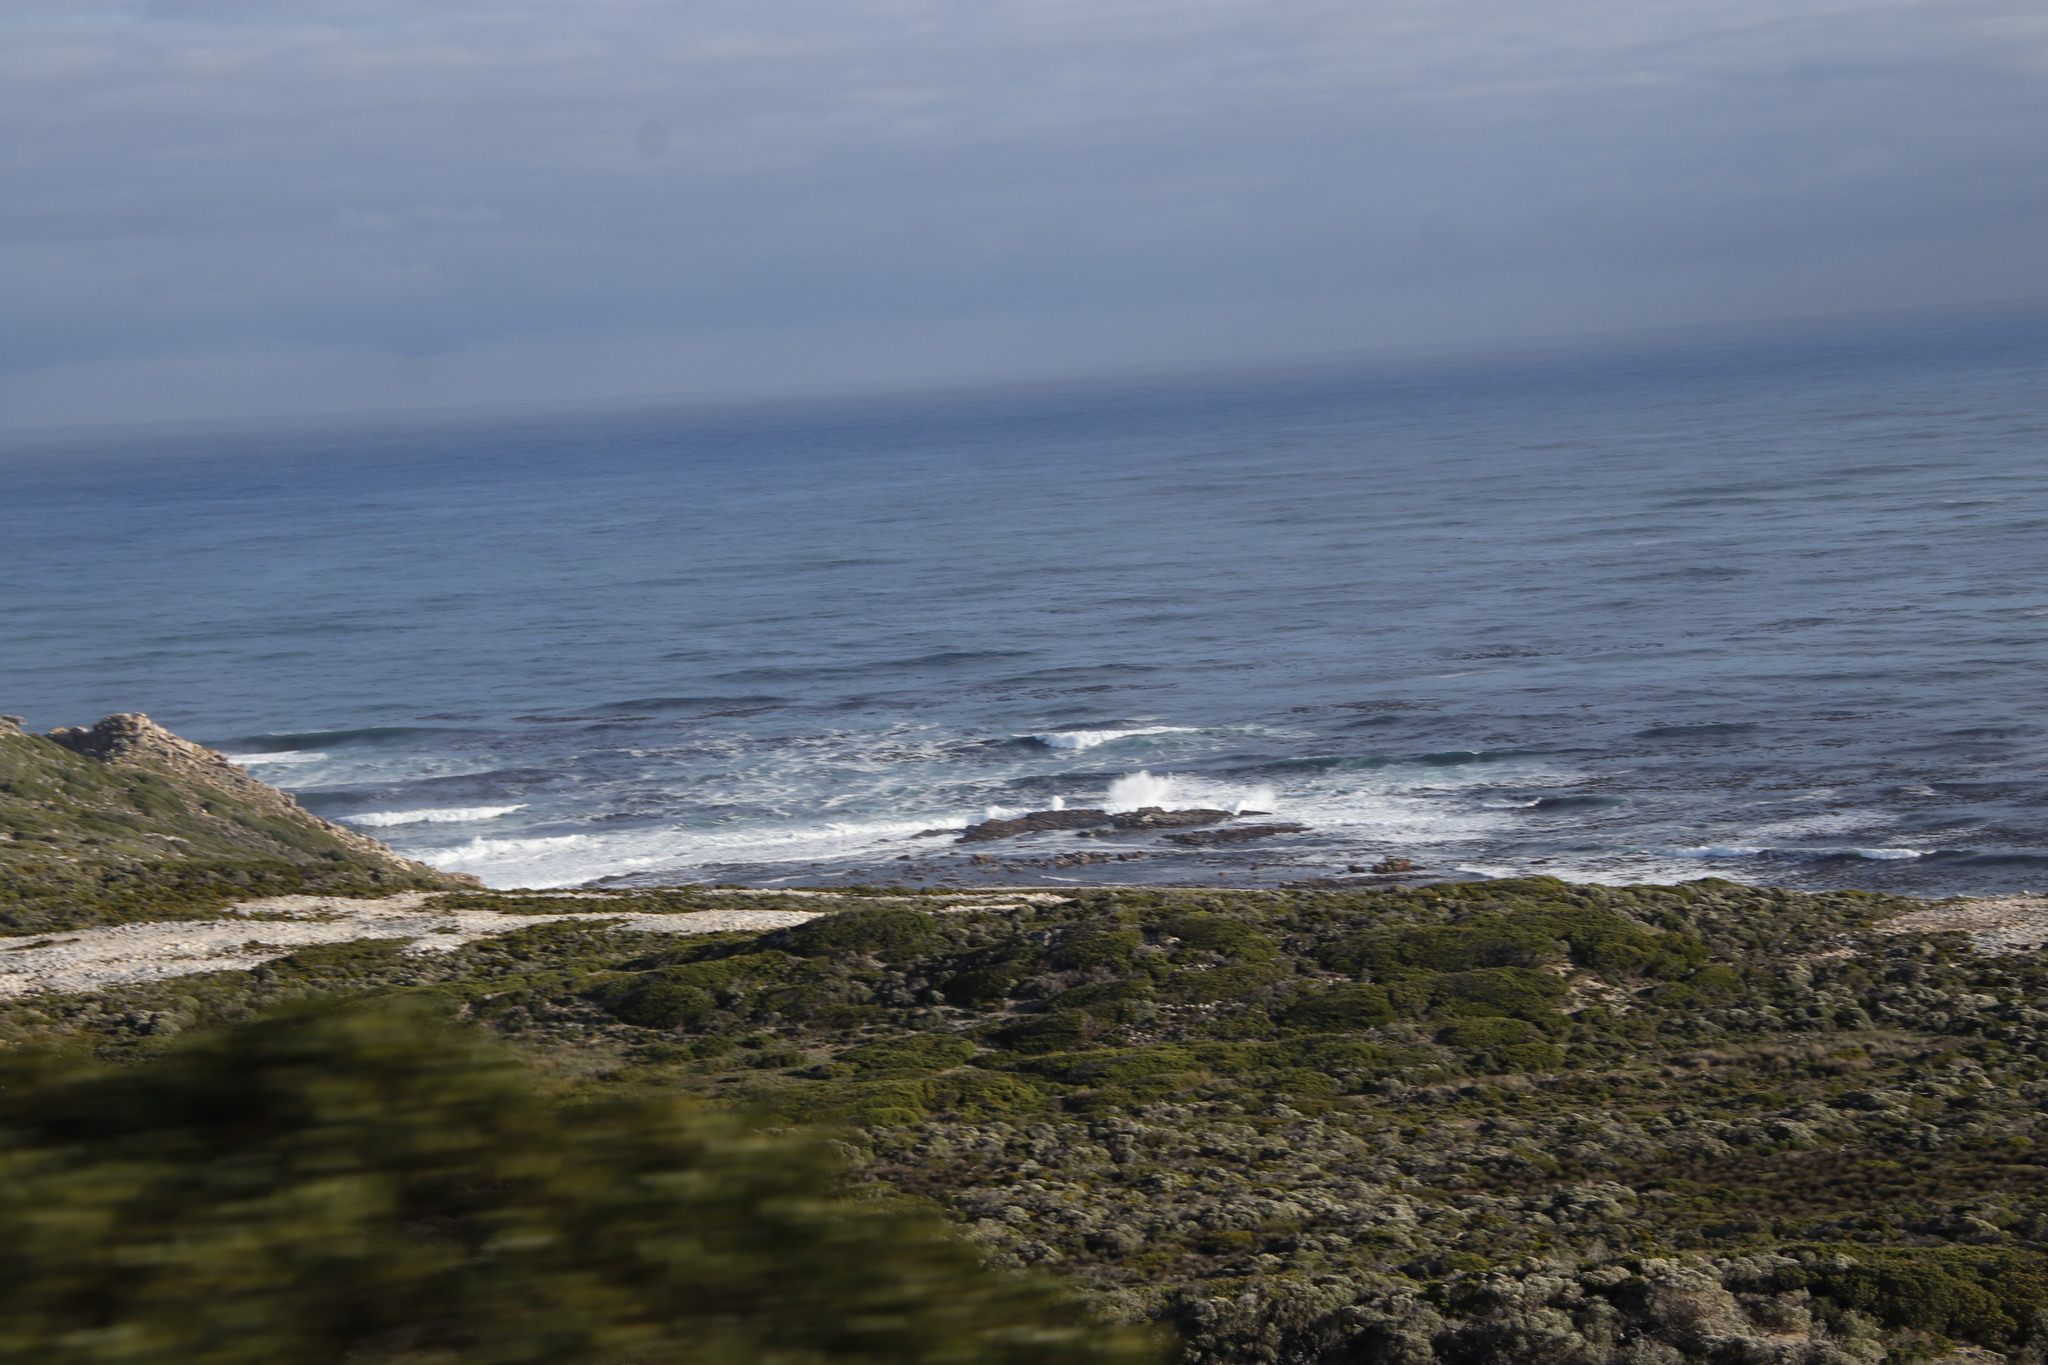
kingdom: Chromista
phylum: Ochrophyta
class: Phaeophyceae
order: Laminariales
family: Lessoniaceae
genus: Ecklonia
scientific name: Ecklonia
